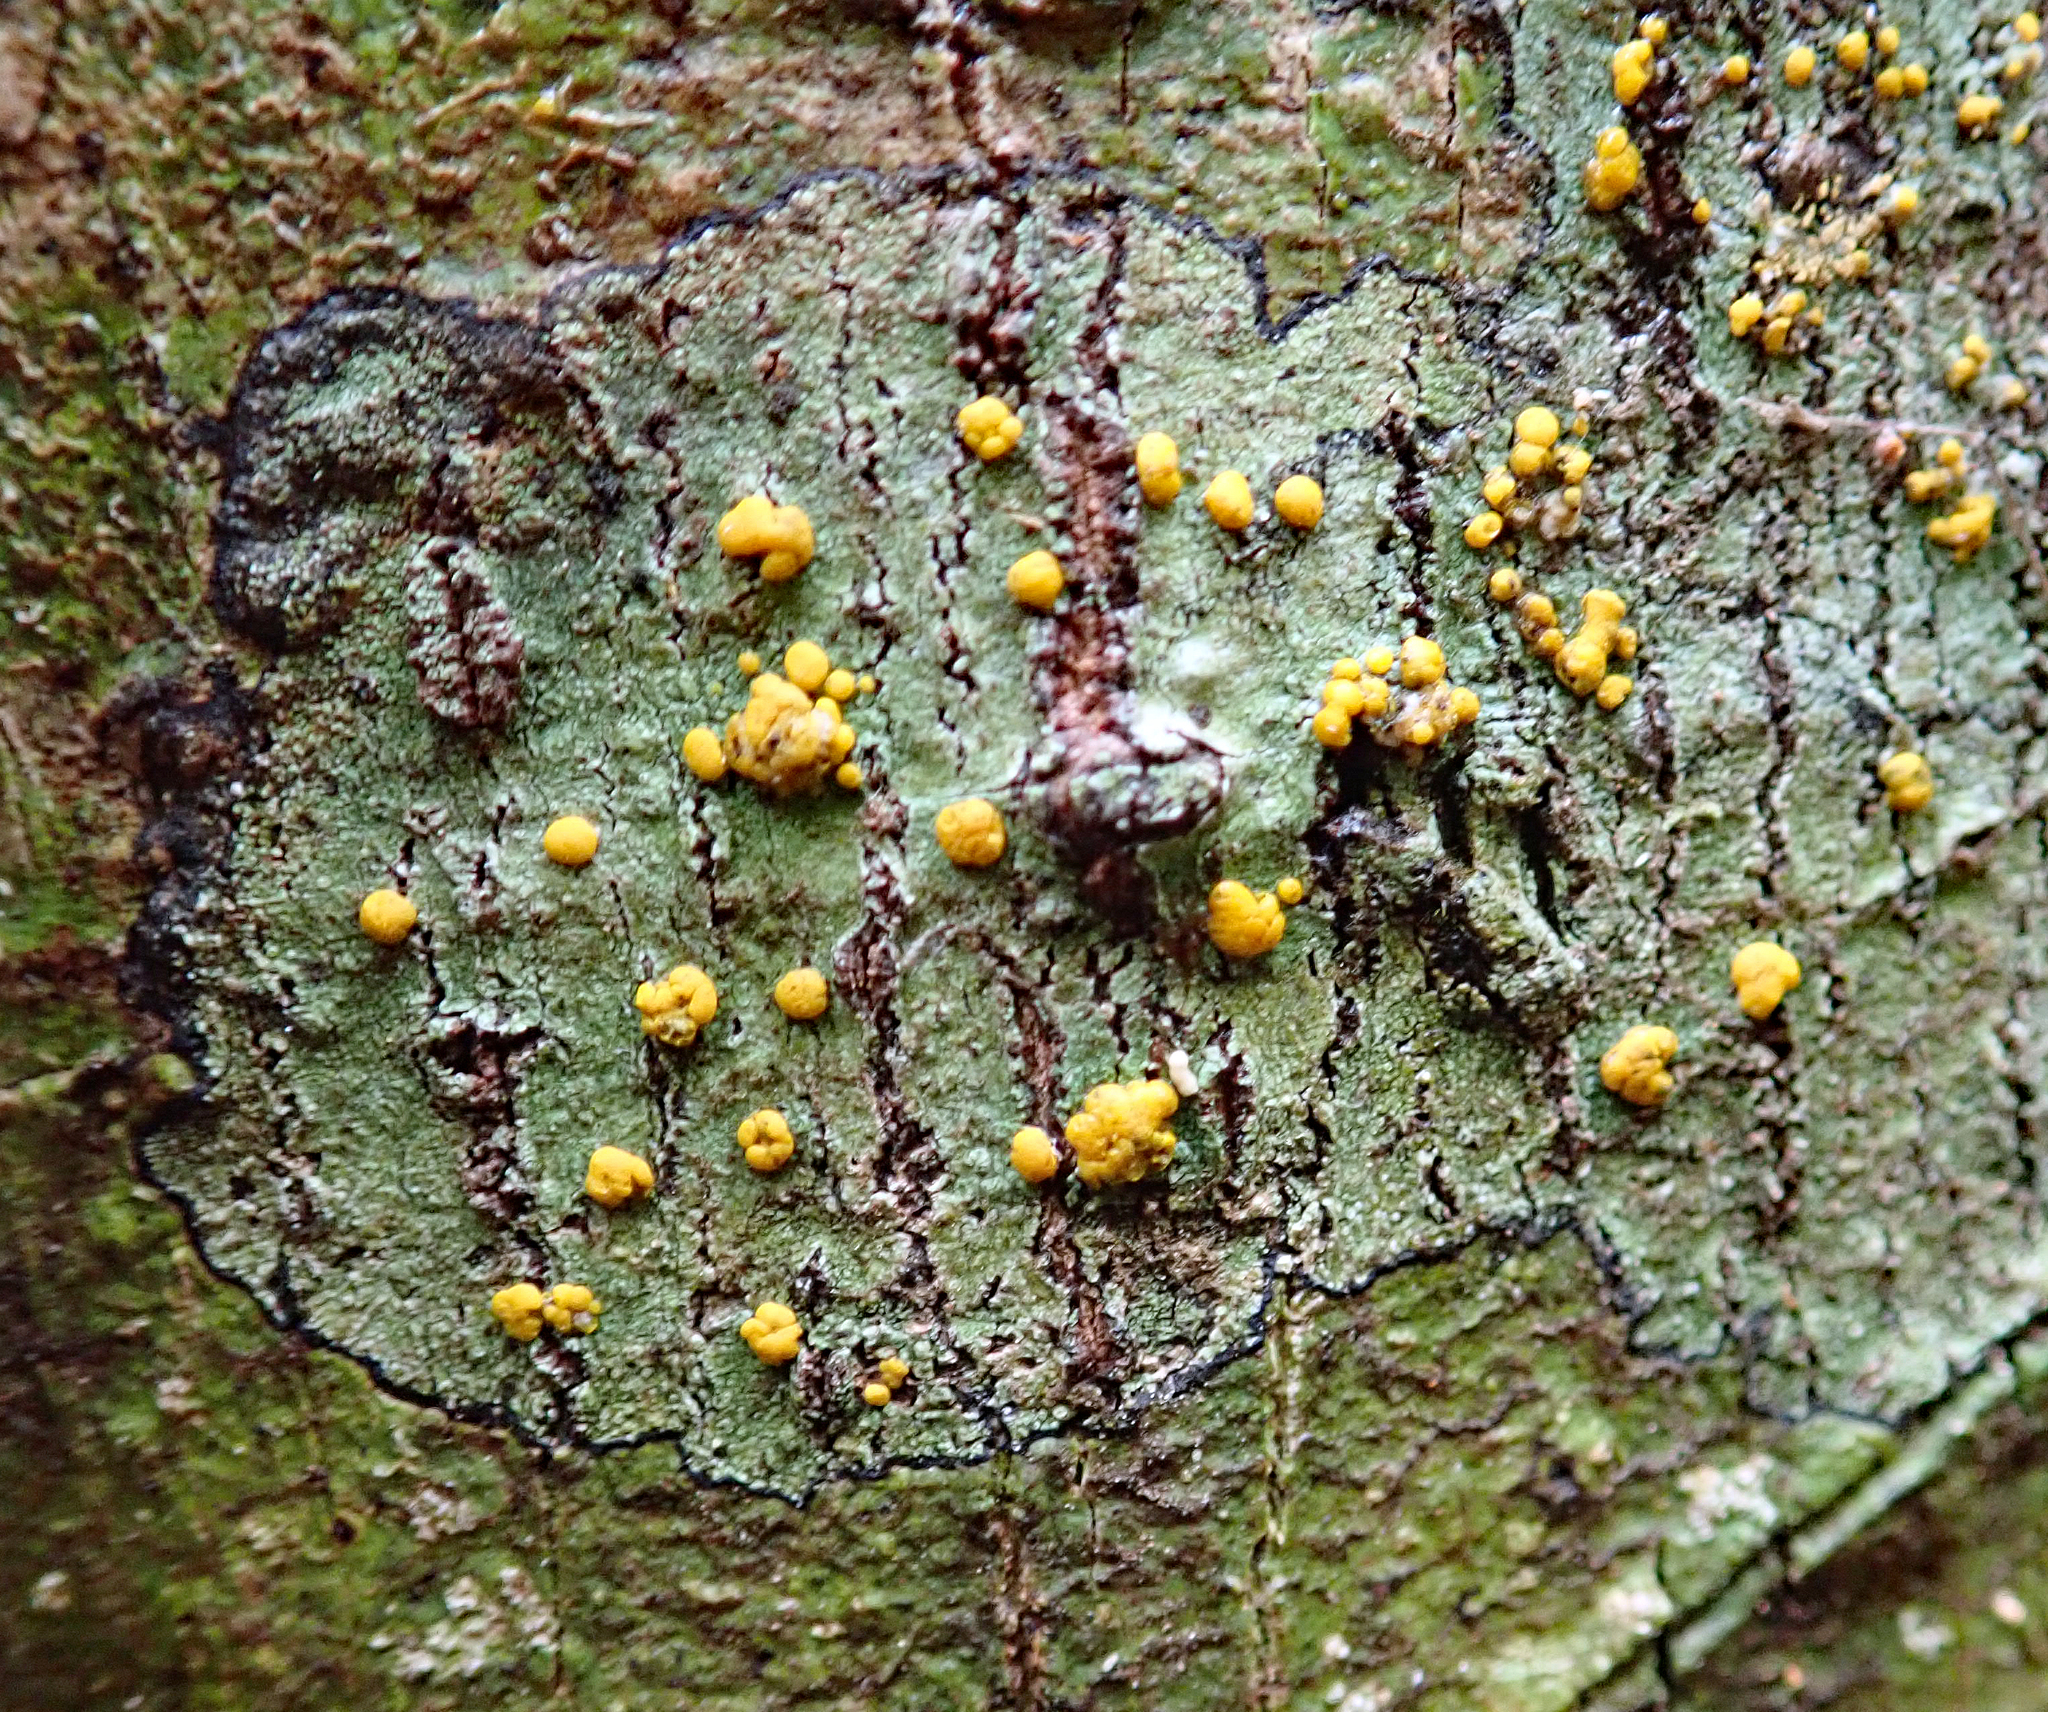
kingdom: Fungi
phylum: Ascomycota
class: Lecanoromycetes
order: Lecanorales
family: Ramalinaceae
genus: Stirtoniella
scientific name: Stirtoniella kelica
